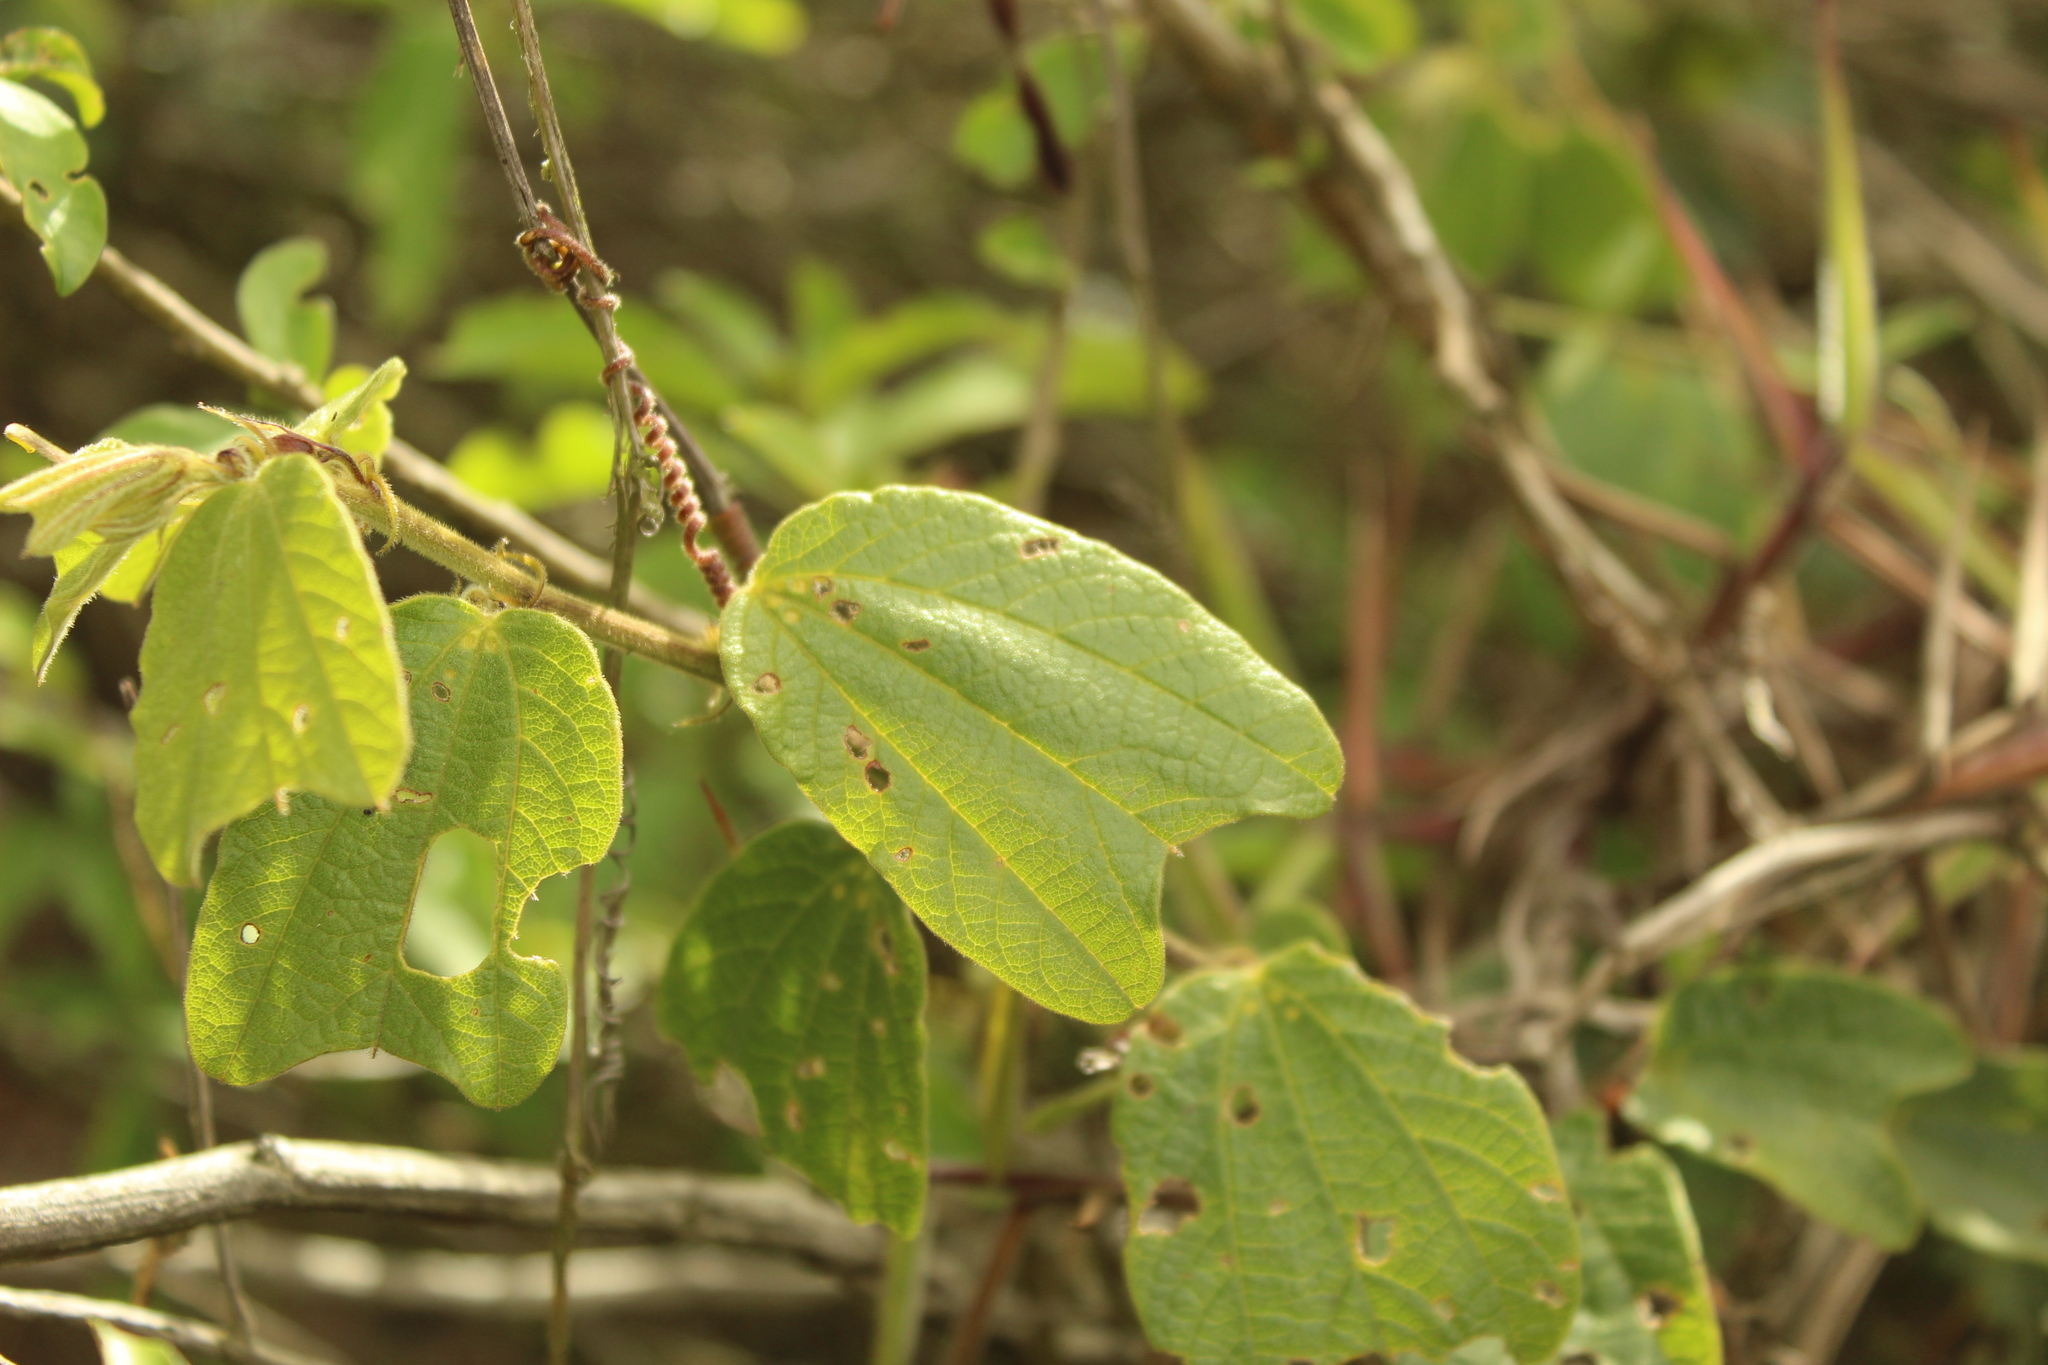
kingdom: Plantae
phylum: Tracheophyta
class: Magnoliopsida
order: Malpighiales
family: Passifloraceae
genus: Passiflora
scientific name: Passiflora bogotensis
